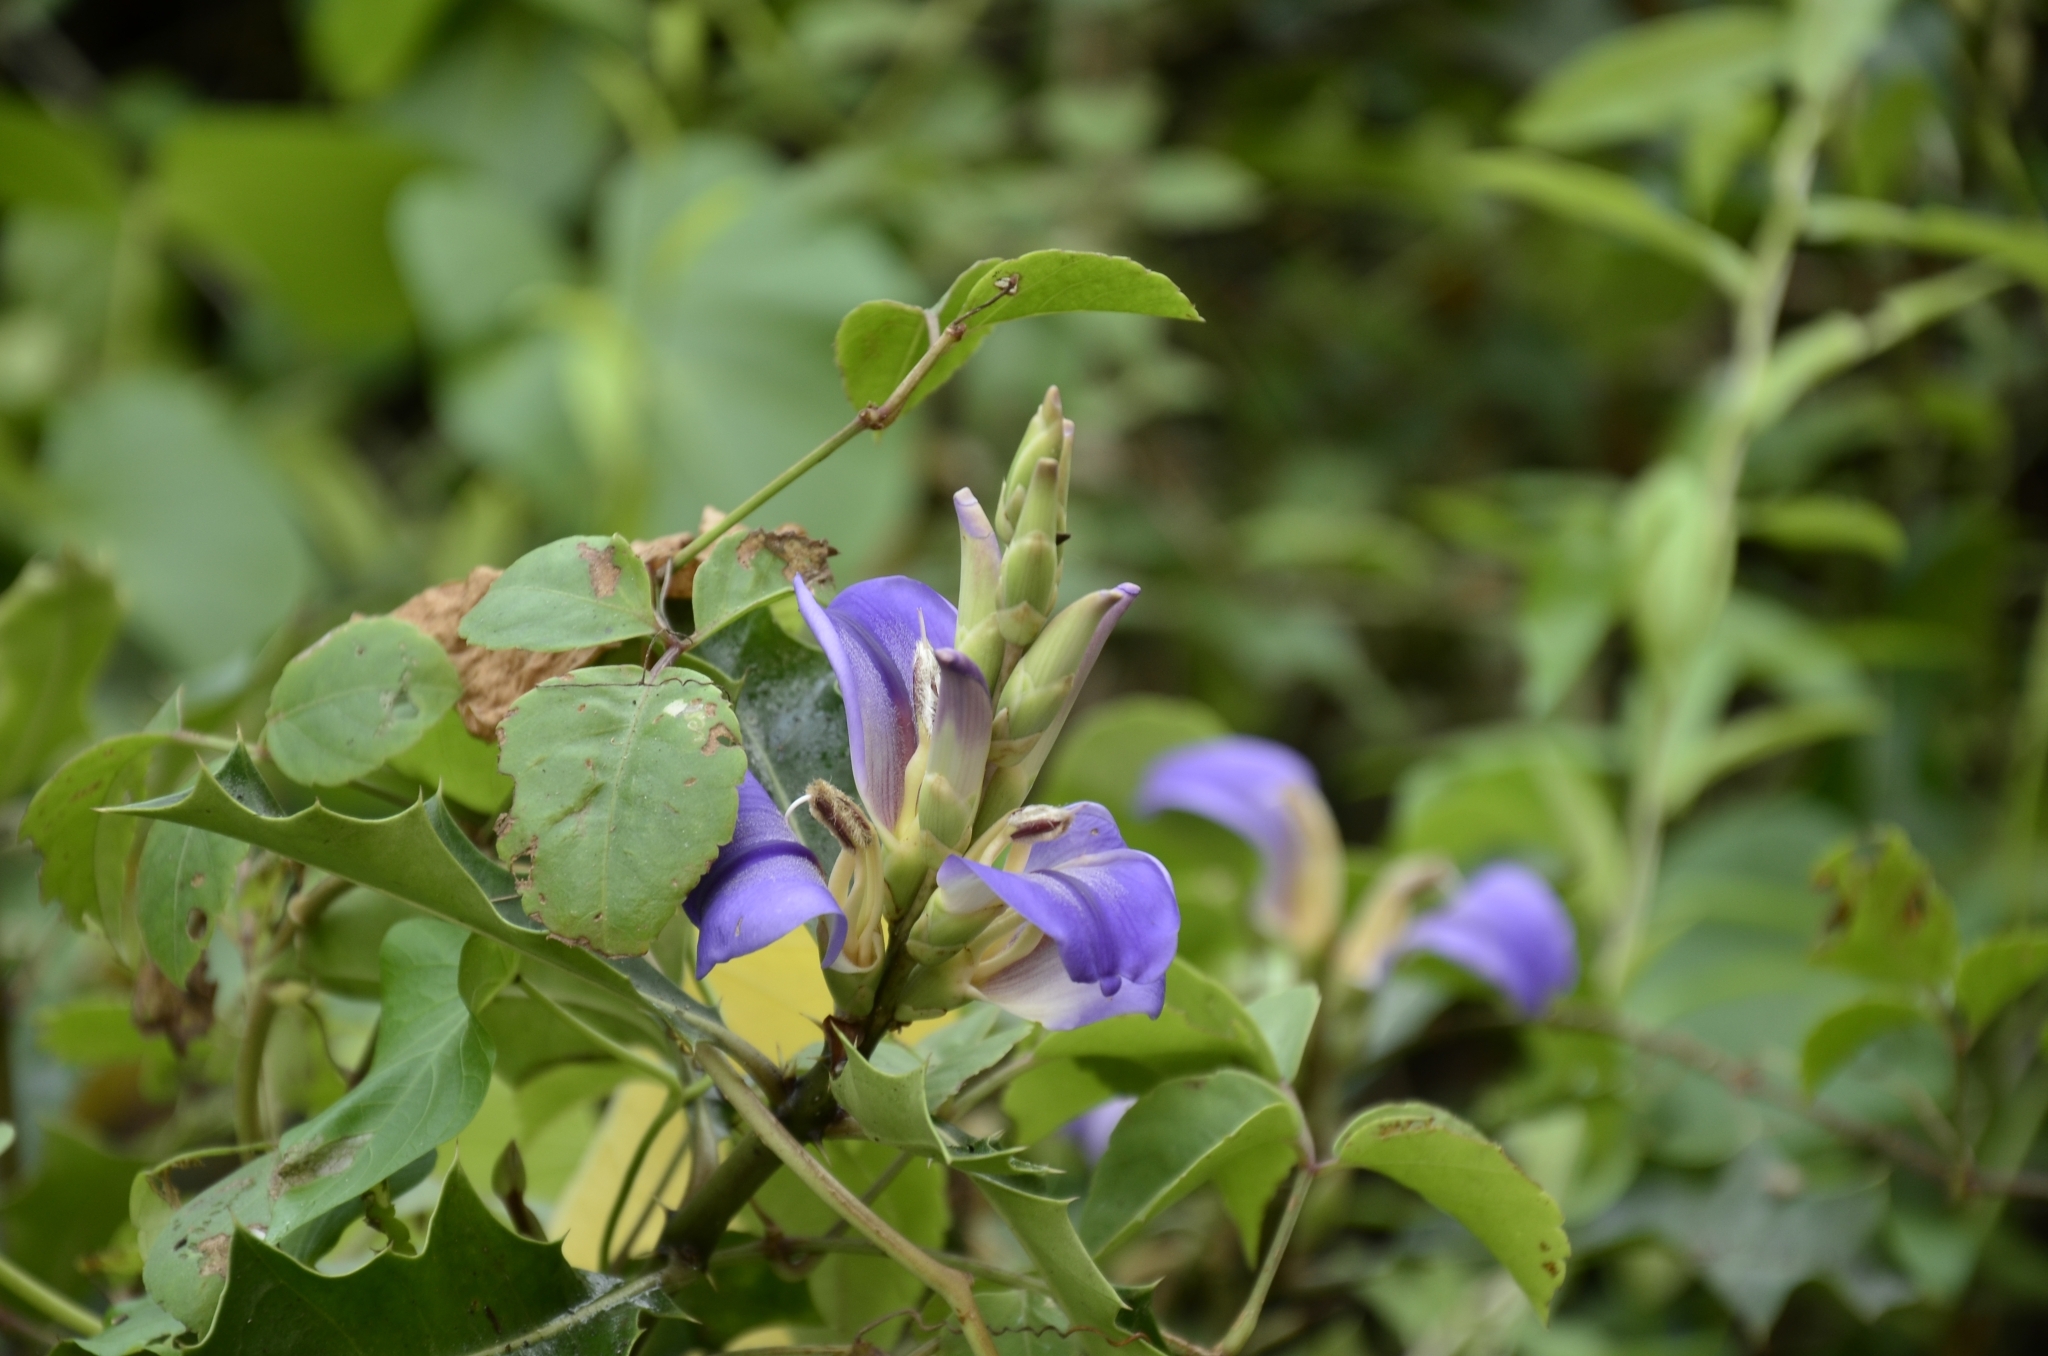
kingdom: Plantae
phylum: Tracheophyta
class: Magnoliopsida
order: Lamiales
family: Acanthaceae
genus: Acanthus
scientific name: Acanthus ilicifolius
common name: Holy mangrove
